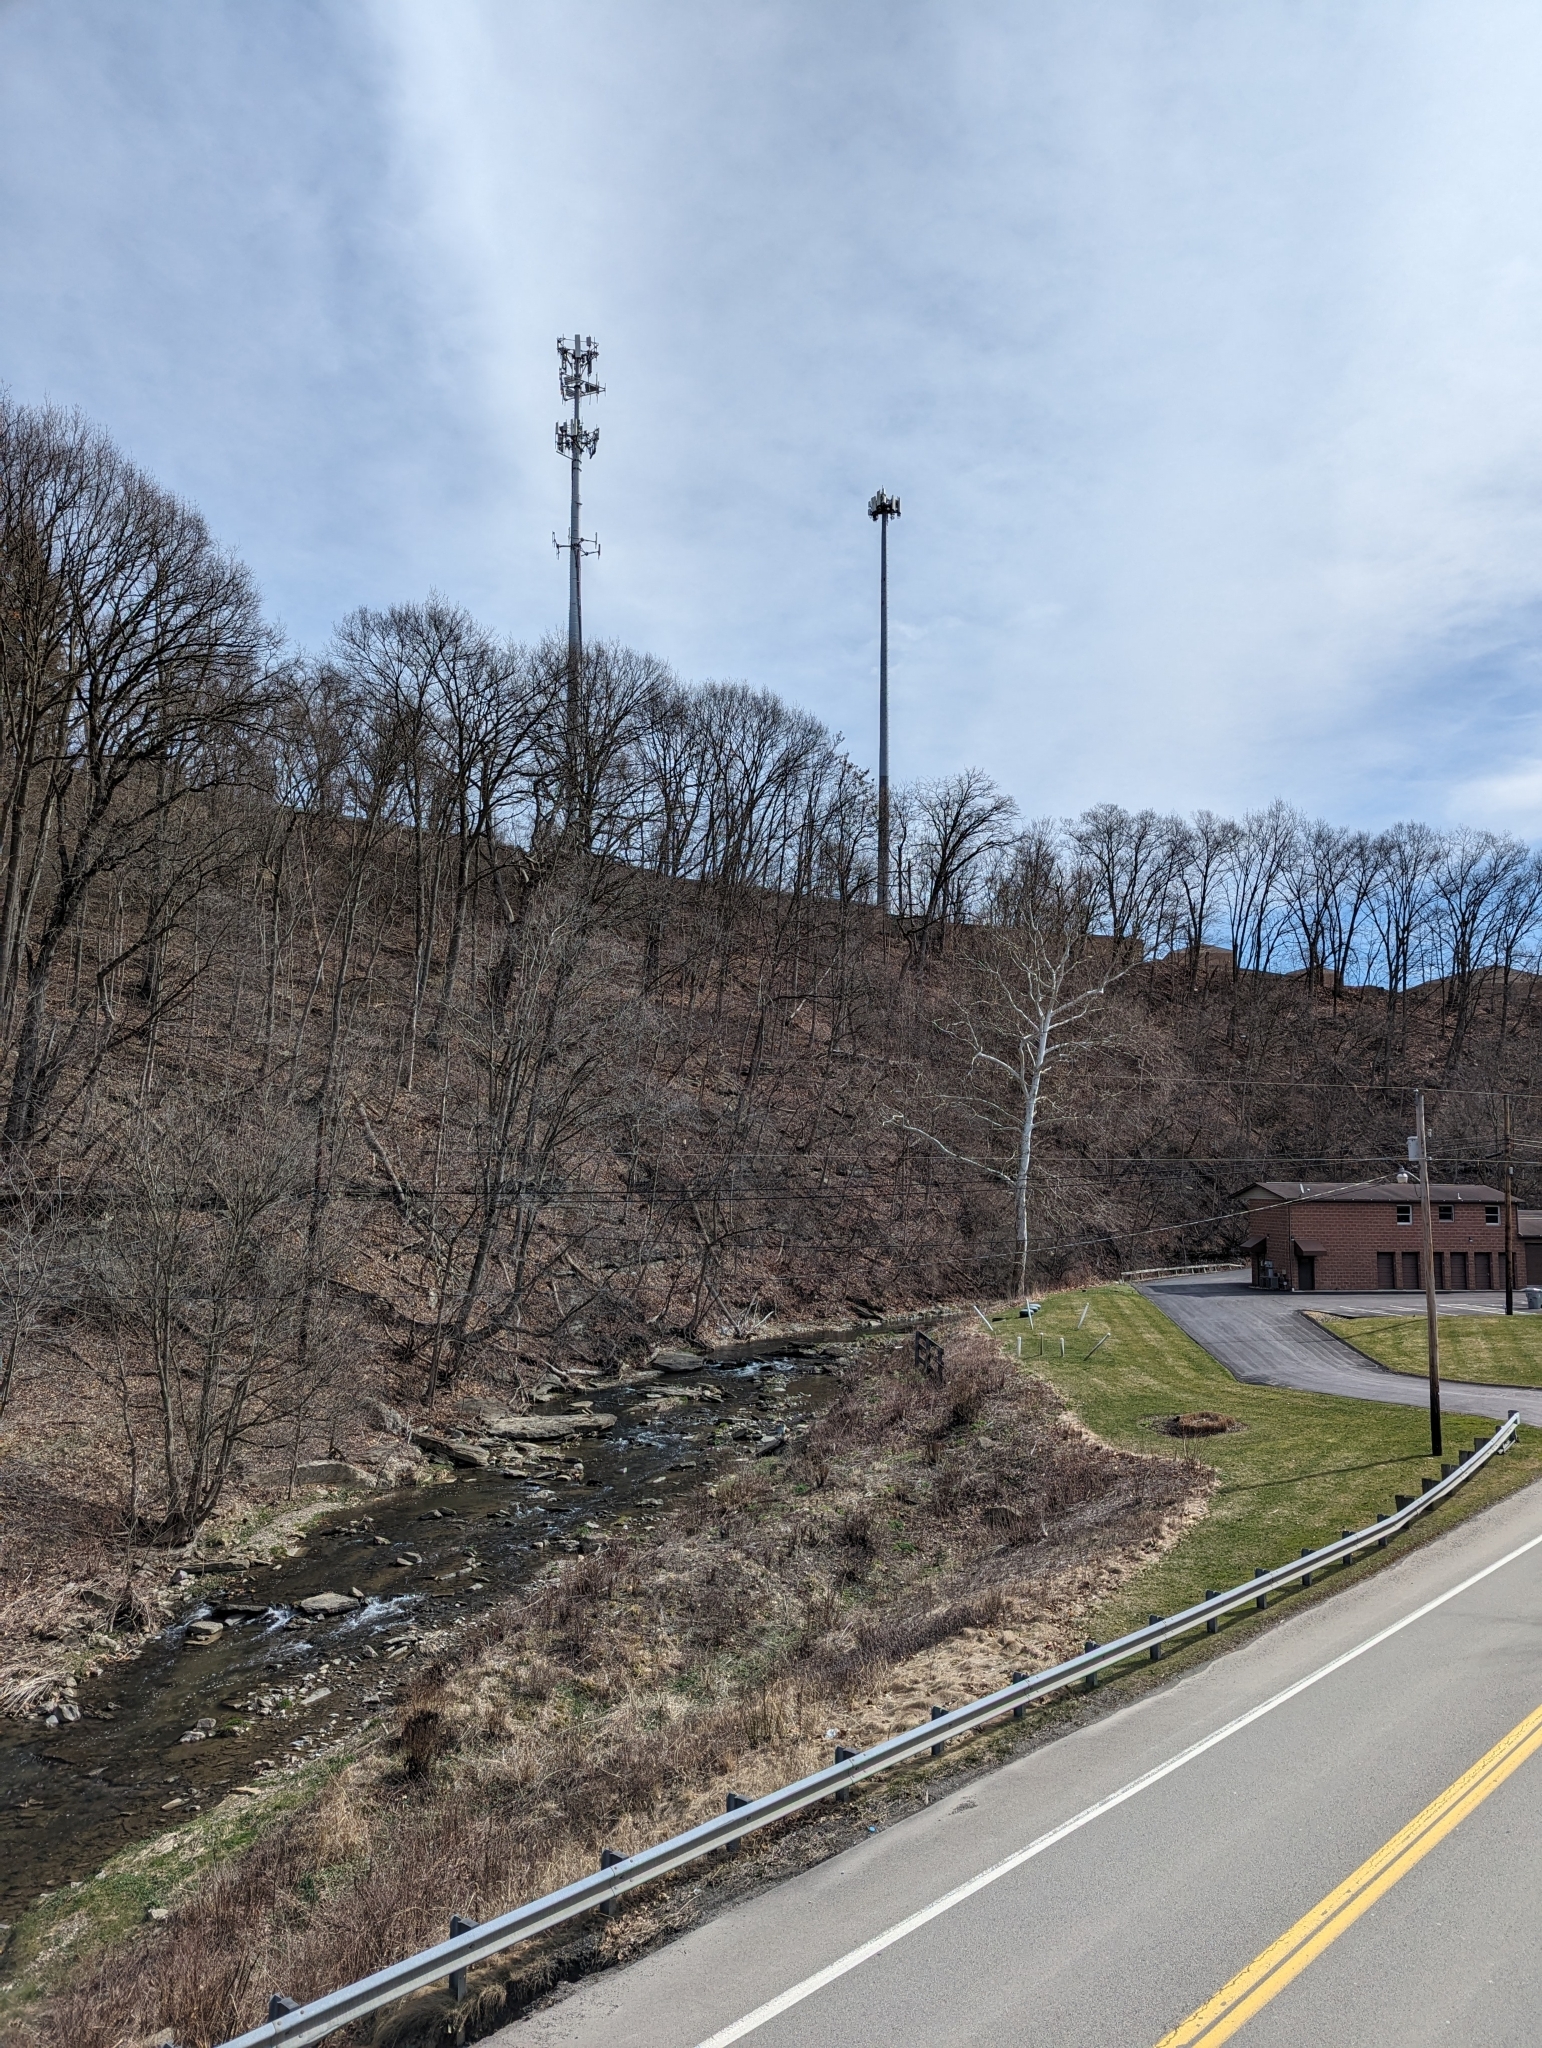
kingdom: Plantae
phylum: Tracheophyta
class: Magnoliopsida
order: Proteales
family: Platanaceae
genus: Platanus
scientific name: Platanus occidentalis
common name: American sycamore
